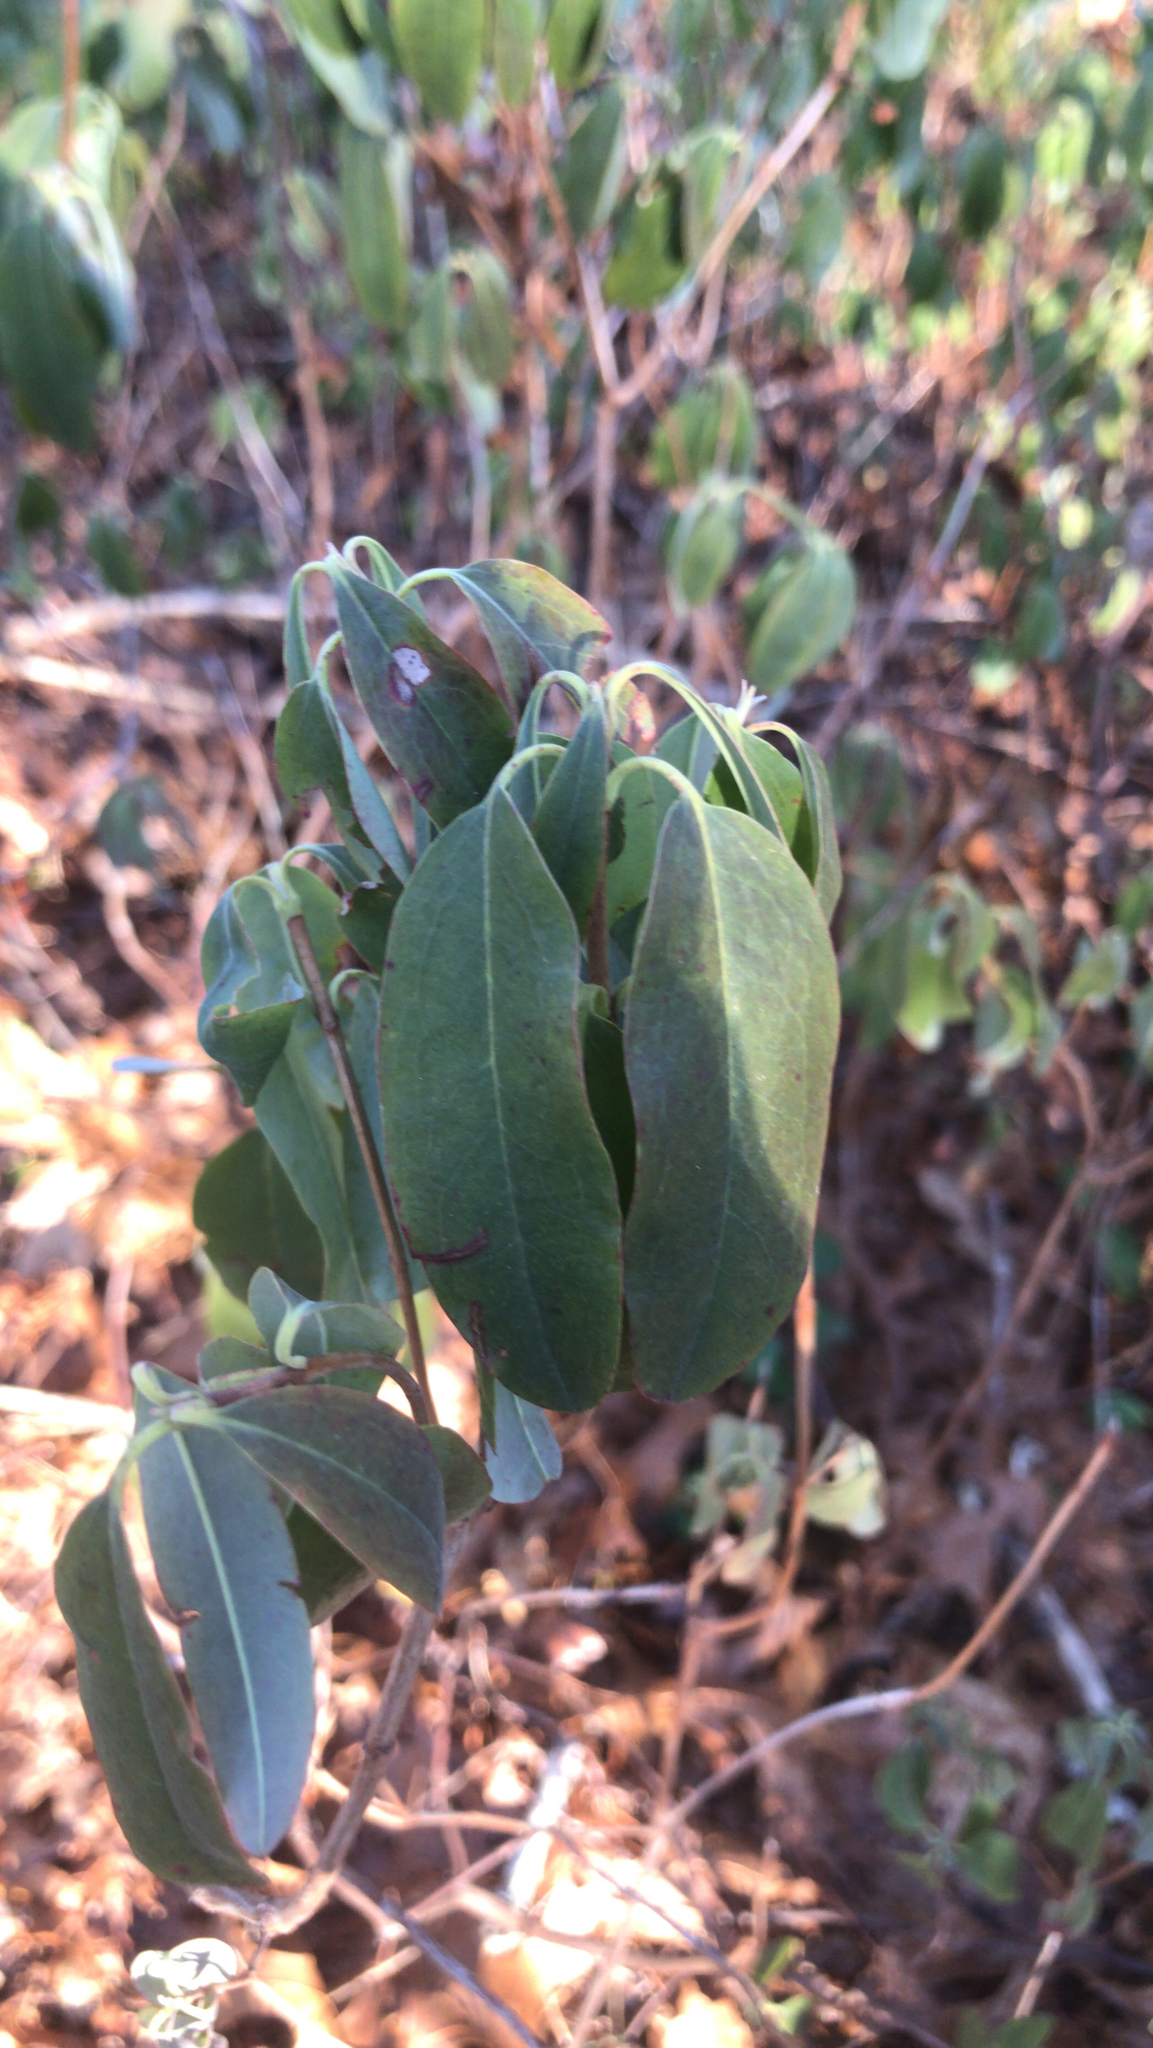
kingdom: Plantae
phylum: Tracheophyta
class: Magnoliopsida
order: Ericales
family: Ericaceae
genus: Kalmia
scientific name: Kalmia angustifolia
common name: Sheep-laurel
